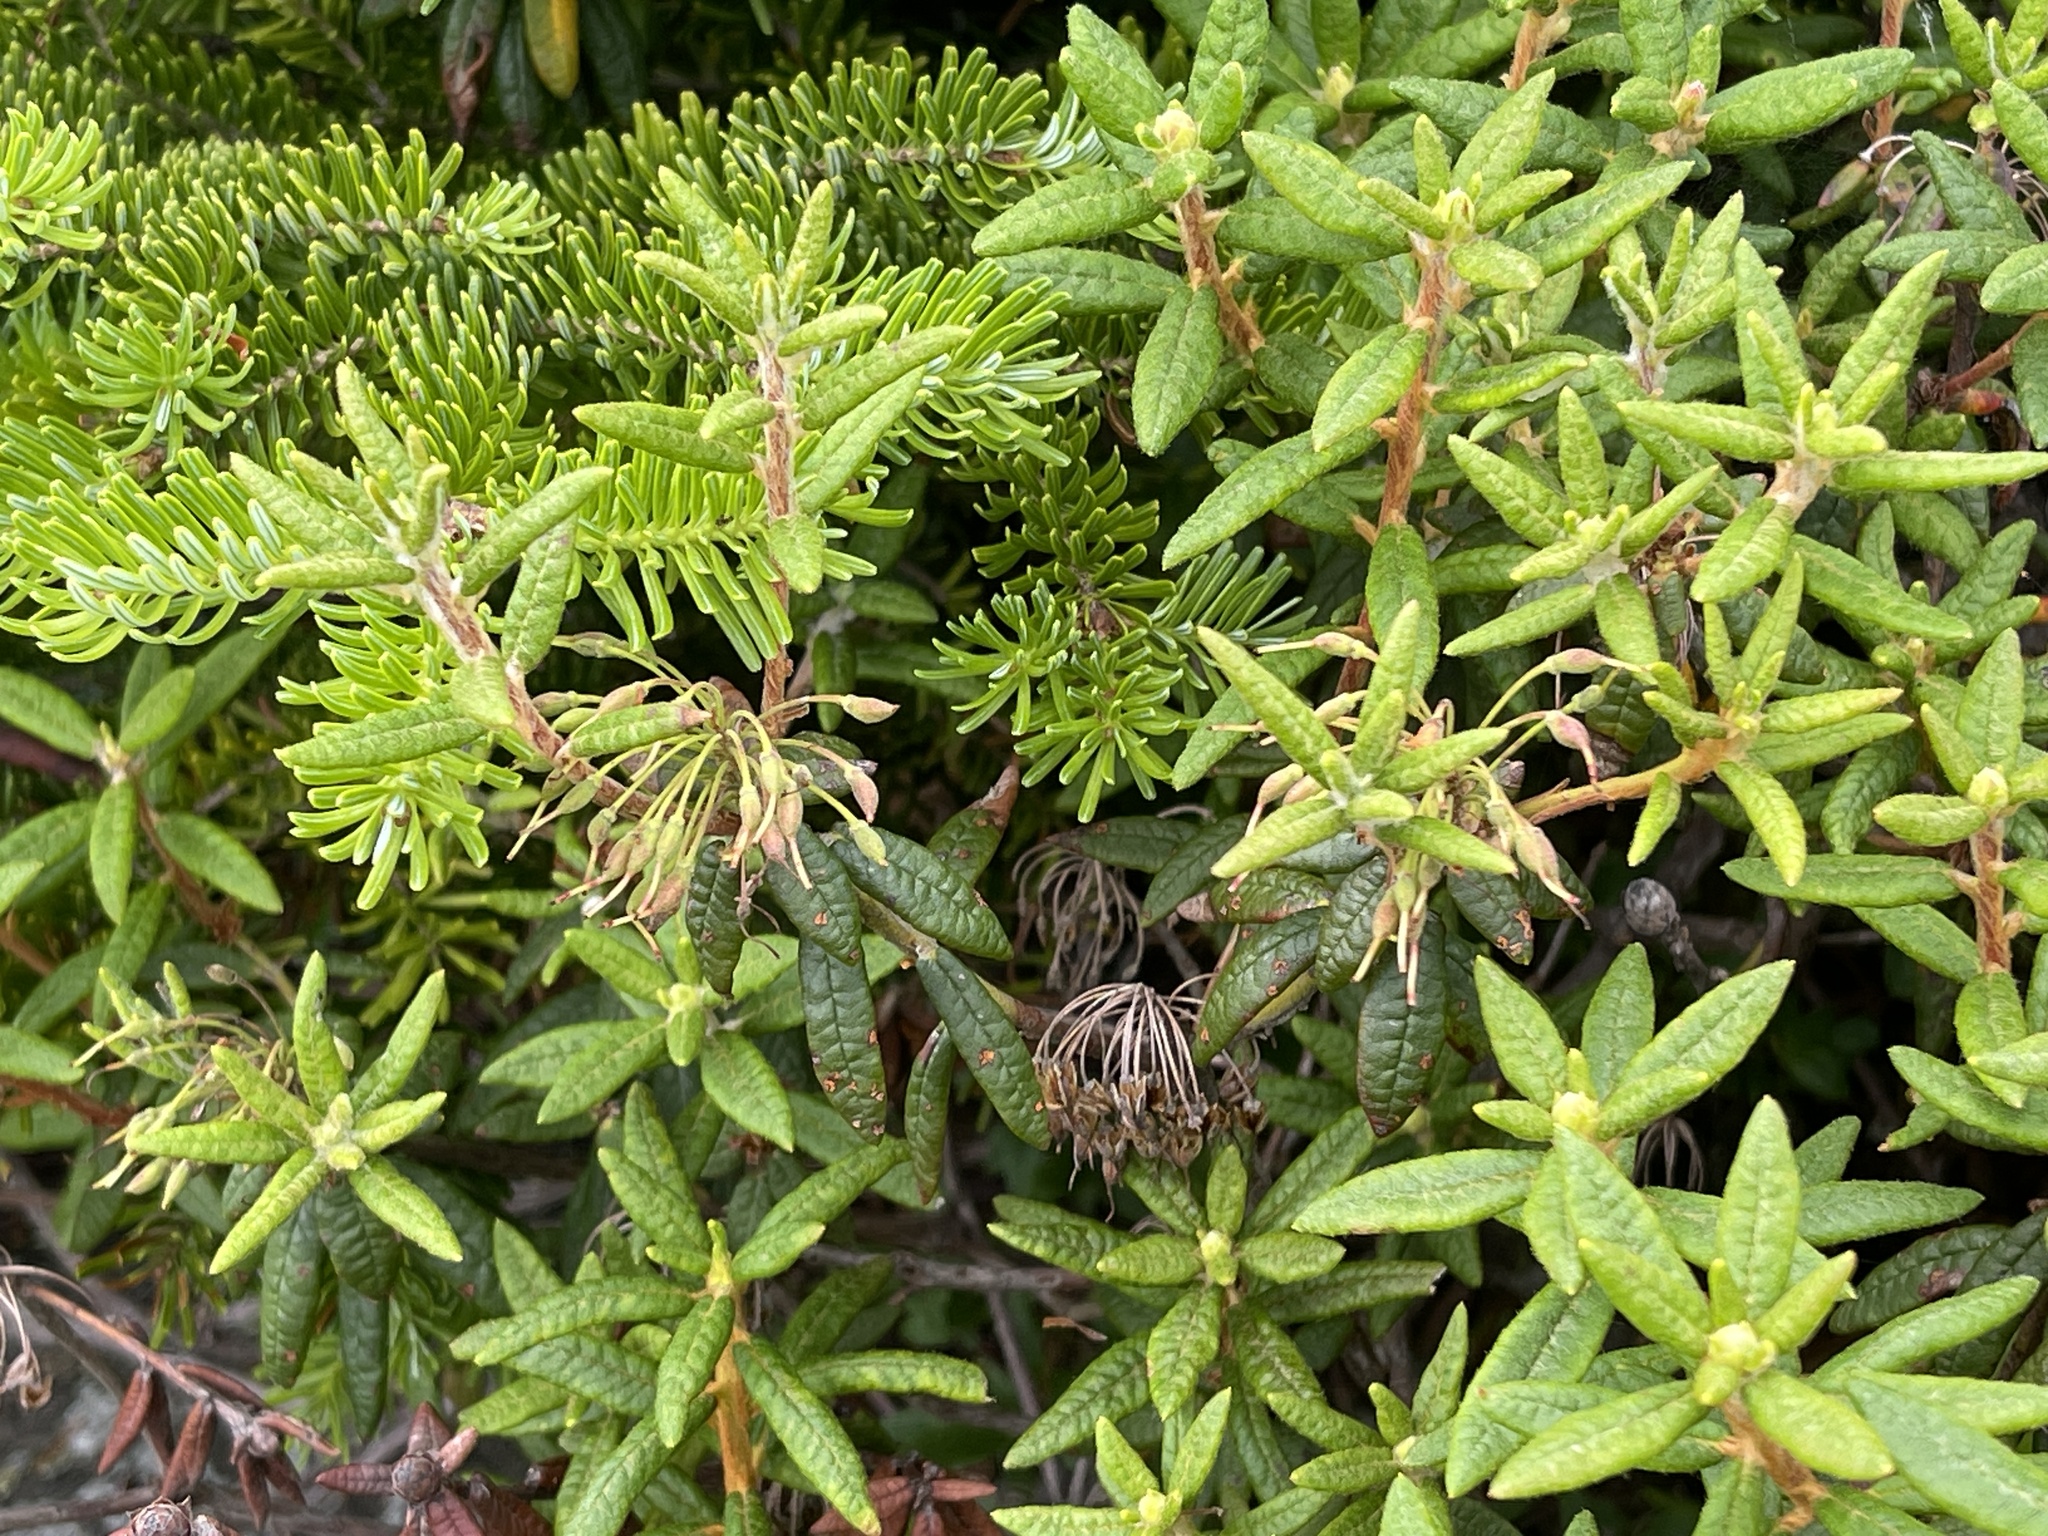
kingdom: Plantae
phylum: Tracheophyta
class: Magnoliopsida
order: Ericales
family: Ericaceae
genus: Rhododendron
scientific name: Rhododendron groenlandicum
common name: Bog labrador tea
